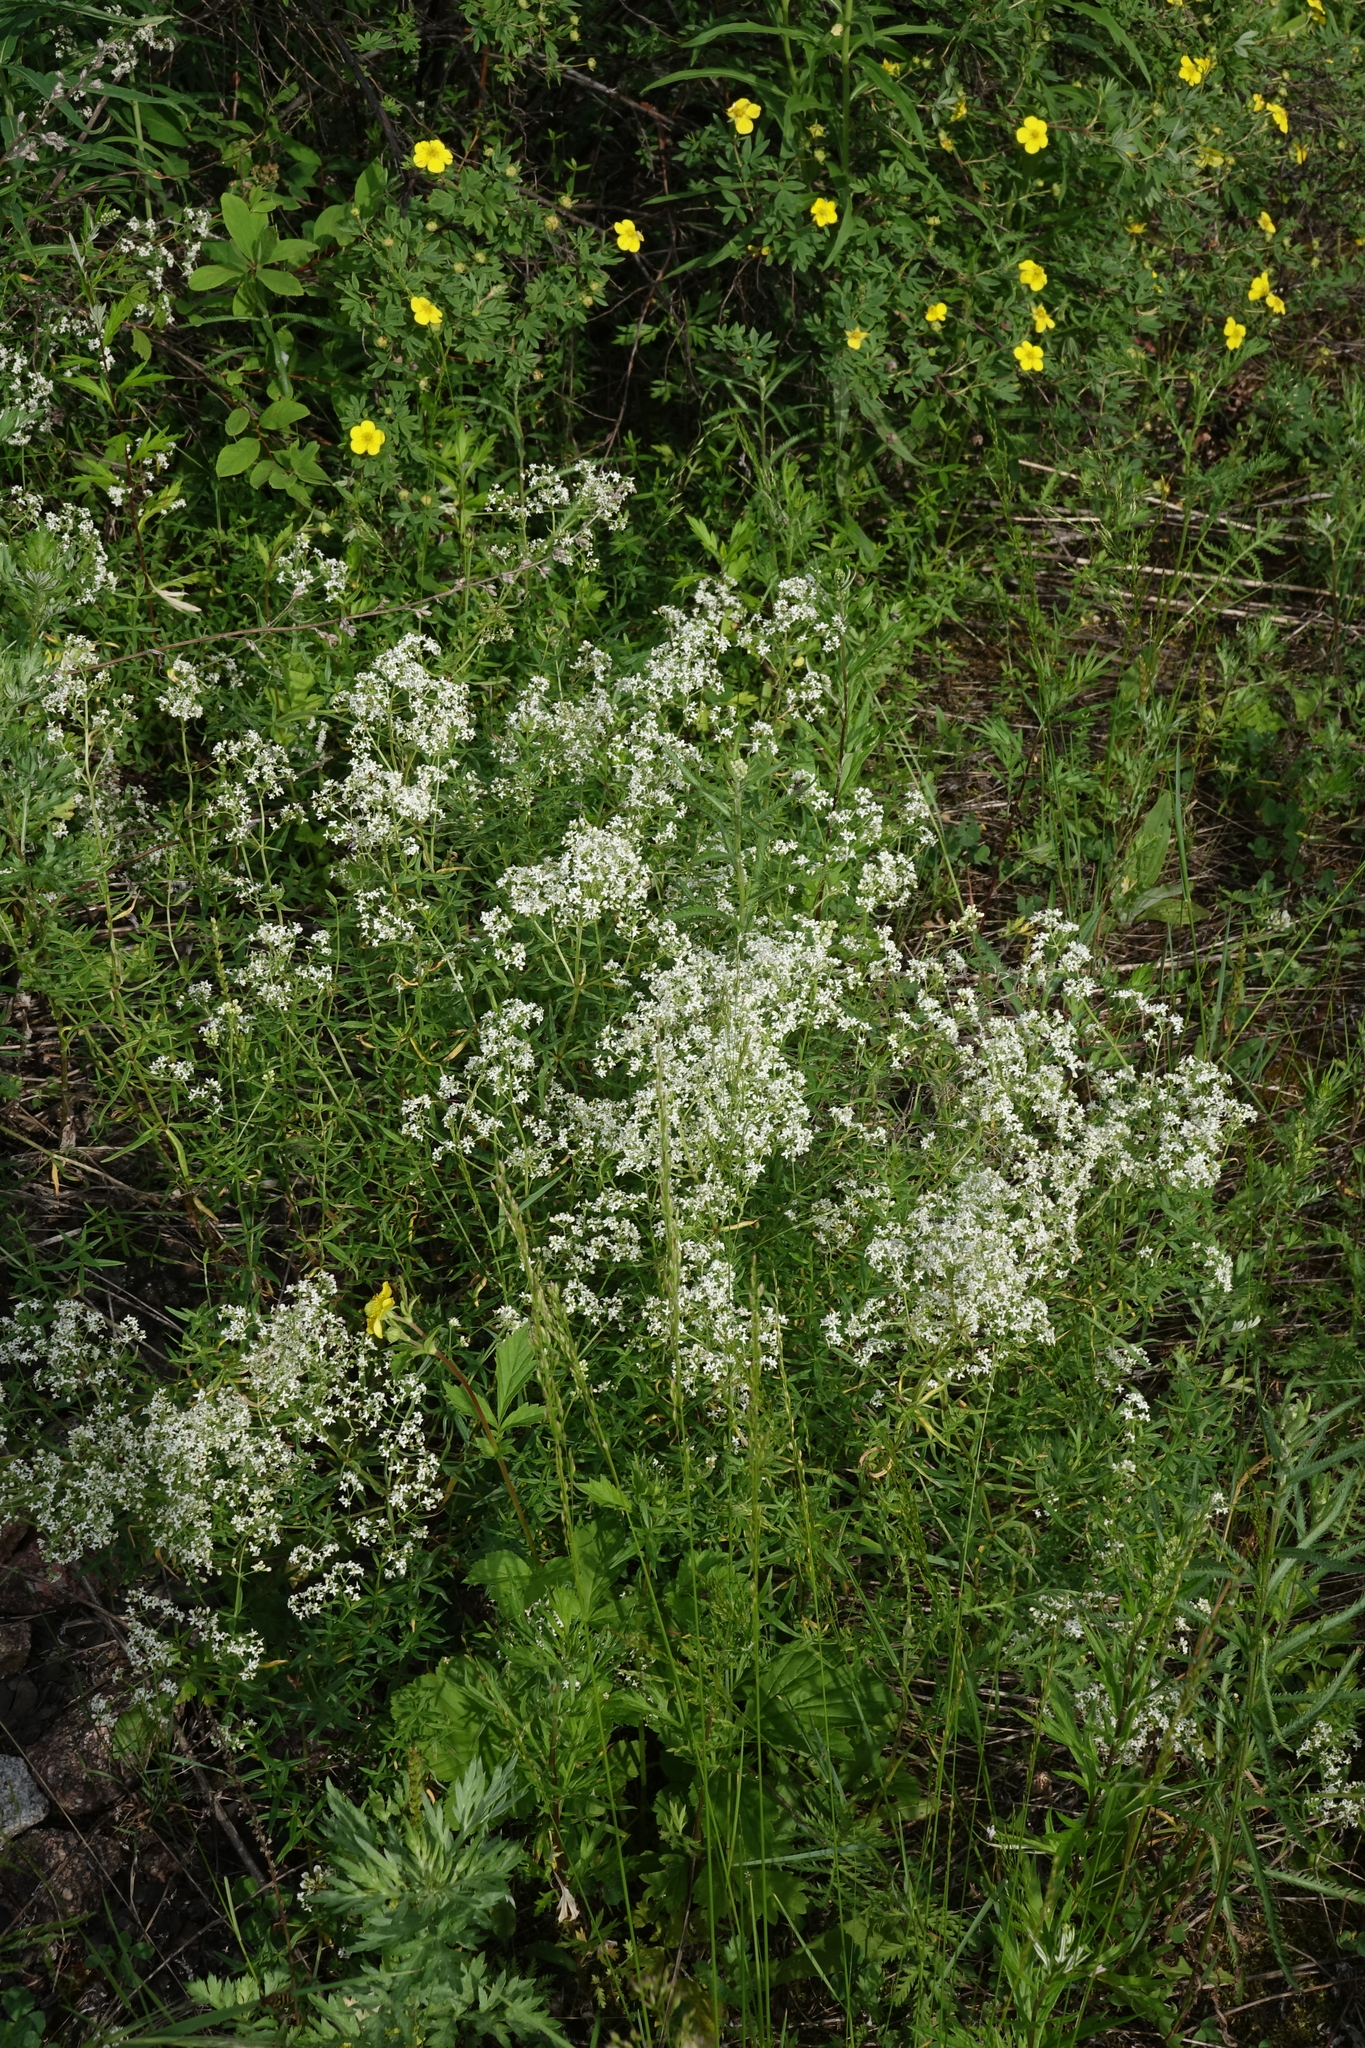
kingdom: Plantae
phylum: Tracheophyta
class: Magnoliopsida
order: Gentianales
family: Rubiaceae
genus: Galium
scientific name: Galium boreale
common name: Northern bedstraw
